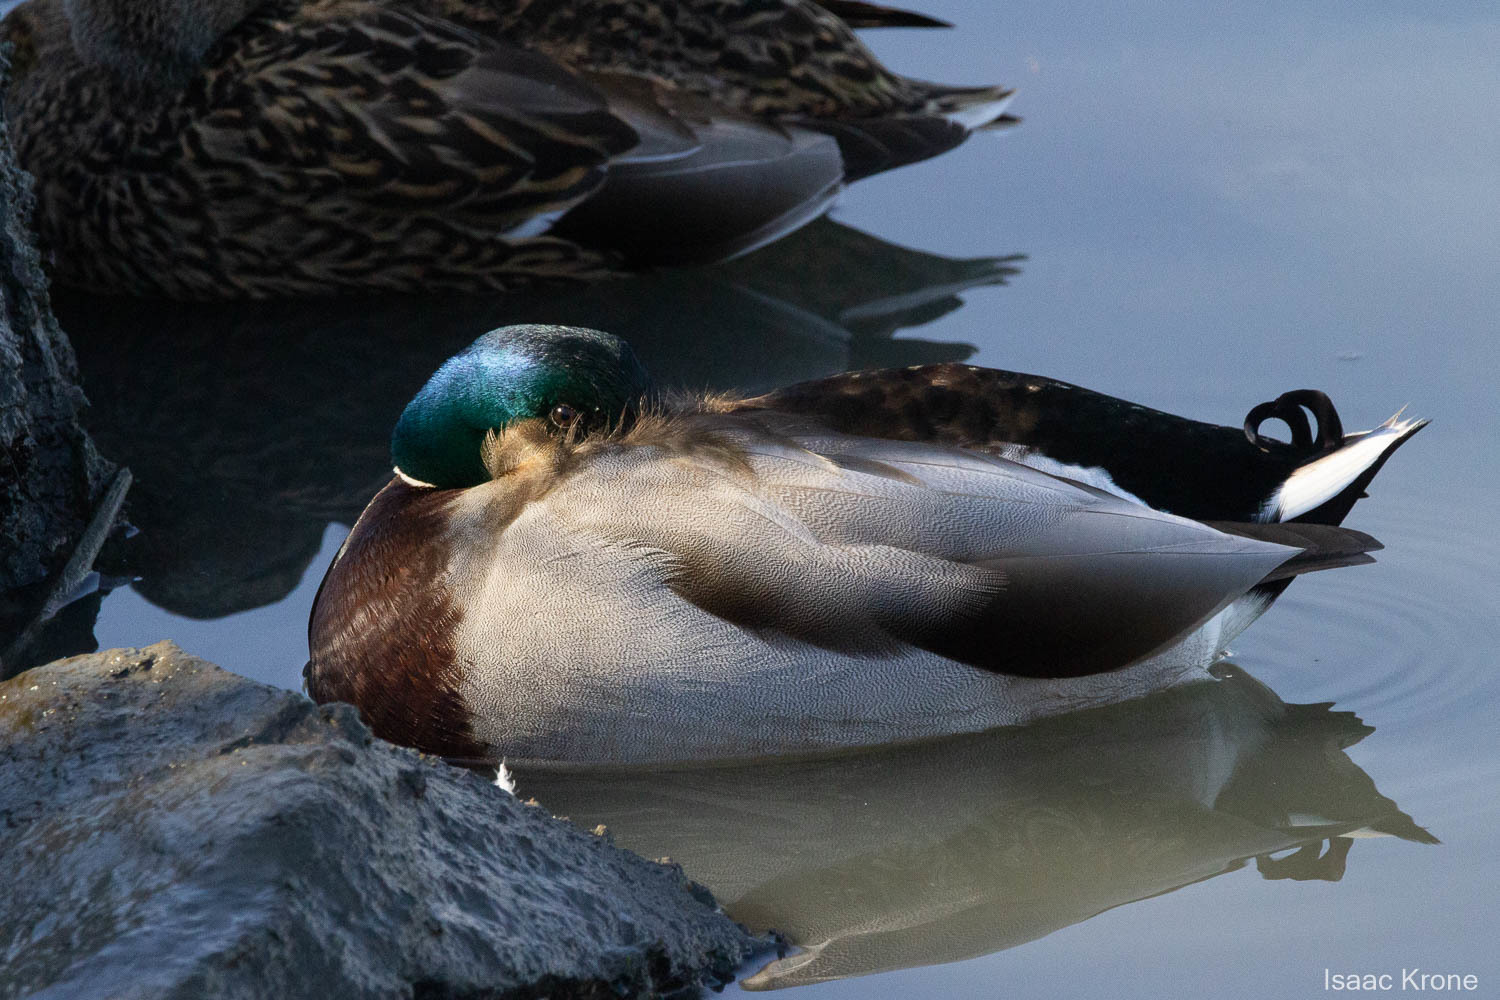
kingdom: Animalia
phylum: Chordata
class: Aves
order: Anseriformes
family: Anatidae
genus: Anas
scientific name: Anas platyrhynchos
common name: Mallard
